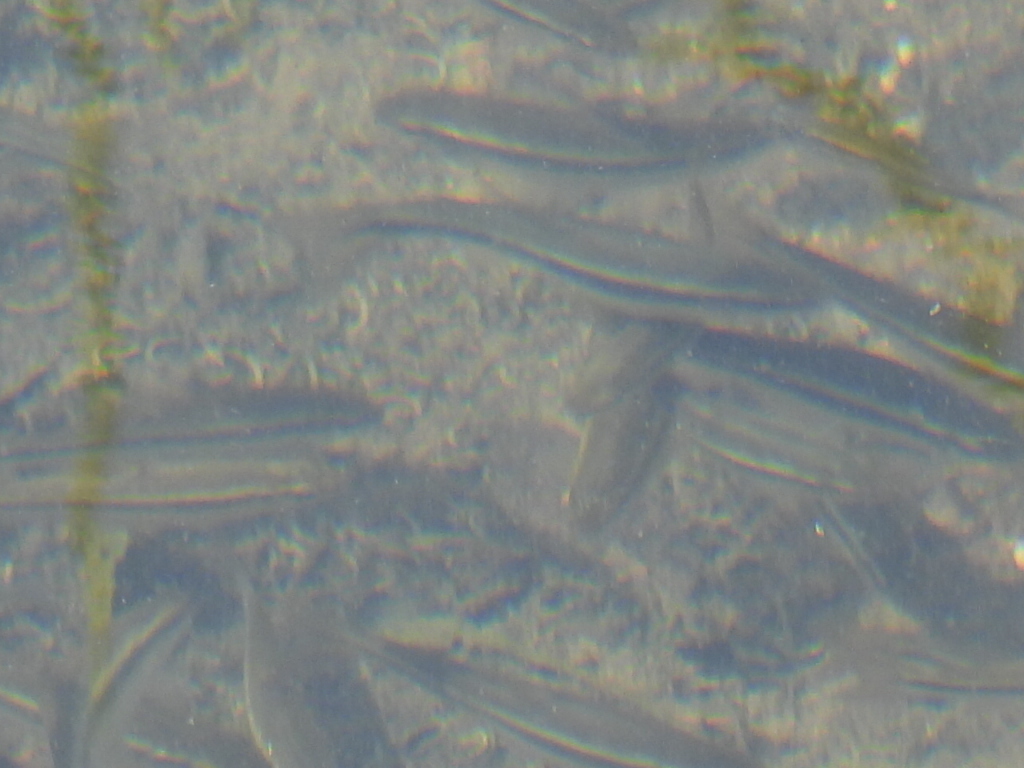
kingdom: Animalia
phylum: Chordata
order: Cypriniformes
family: Cyprinidae
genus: Campostoma
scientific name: Campostoma anomalum
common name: Central stoneroller
